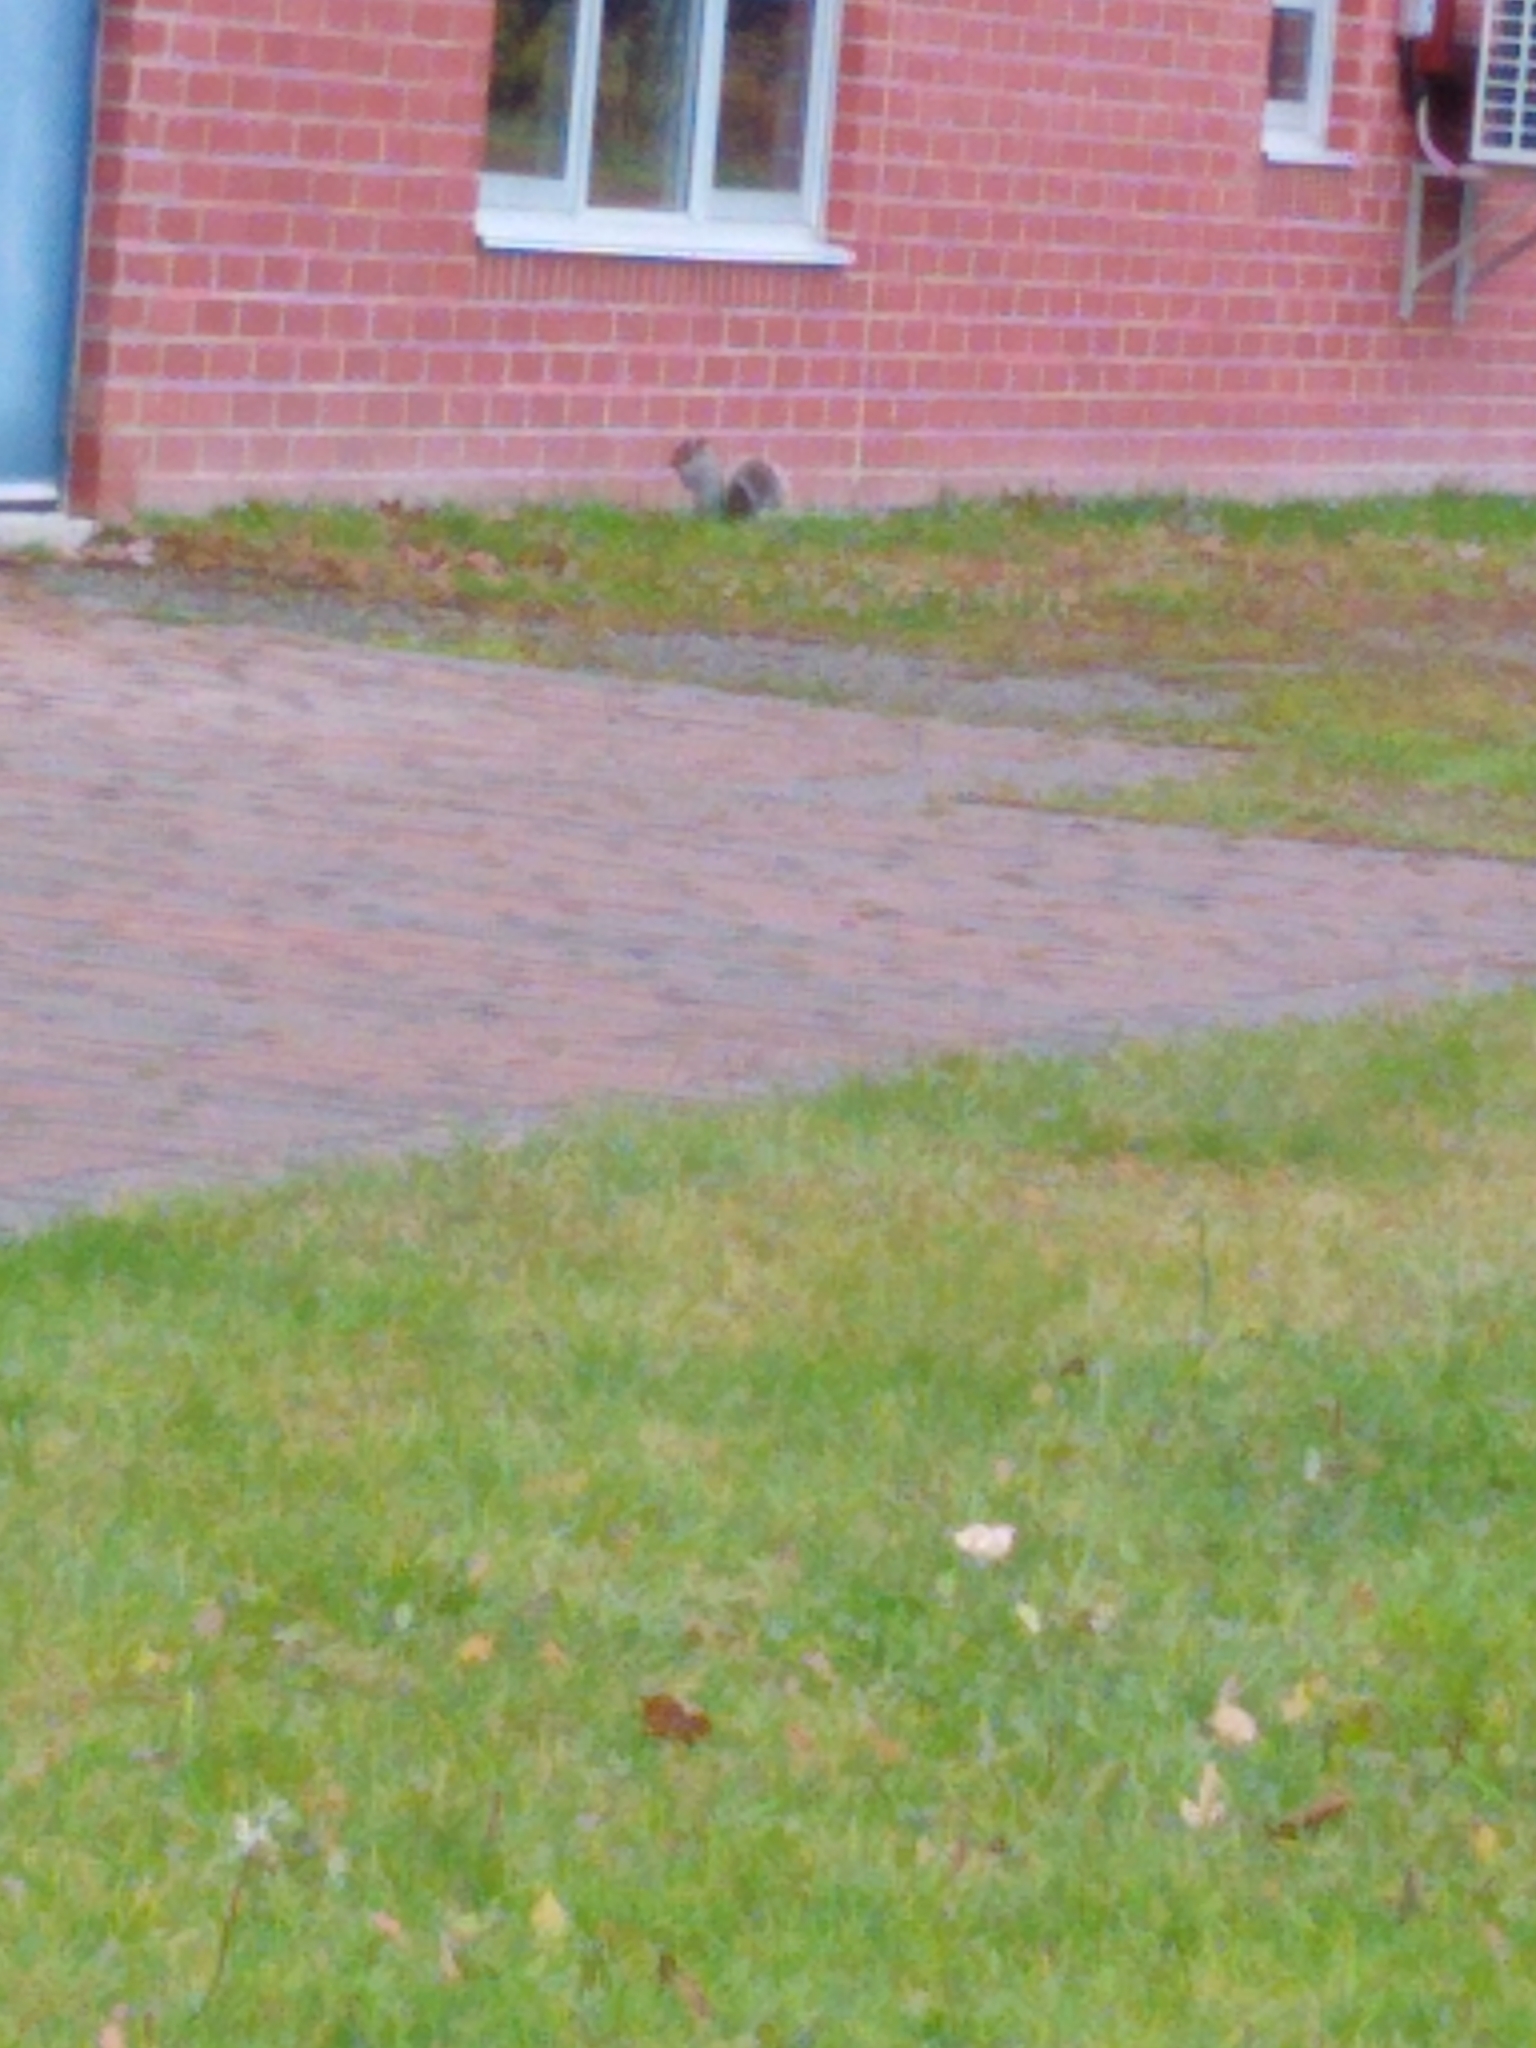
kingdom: Animalia
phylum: Chordata
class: Mammalia
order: Rodentia
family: Sciuridae
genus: Sciurus
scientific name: Sciurus carolinensis
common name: Eastern gray squirrel
